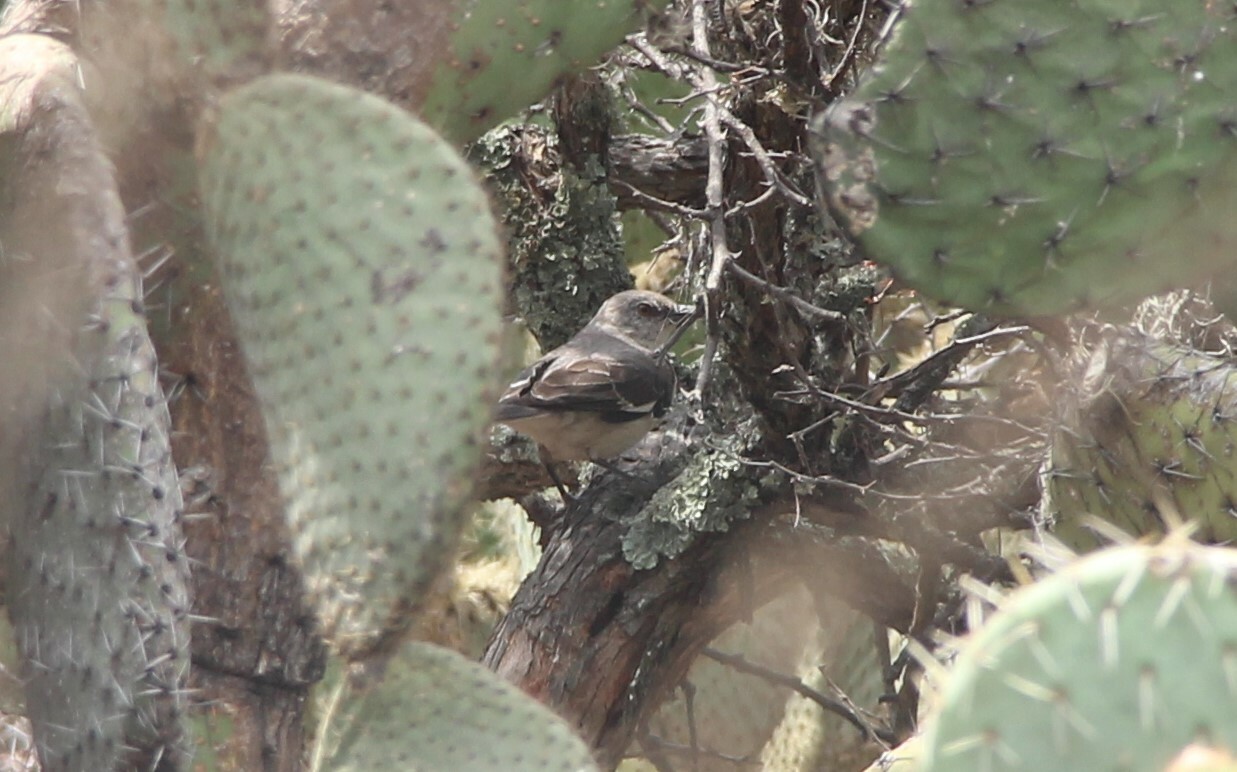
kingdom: Animalia
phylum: Chordata
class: Aves
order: Passeriformes
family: Mimidae
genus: Mimus
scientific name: Mimus polyglottos
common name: Northern mockingbird
